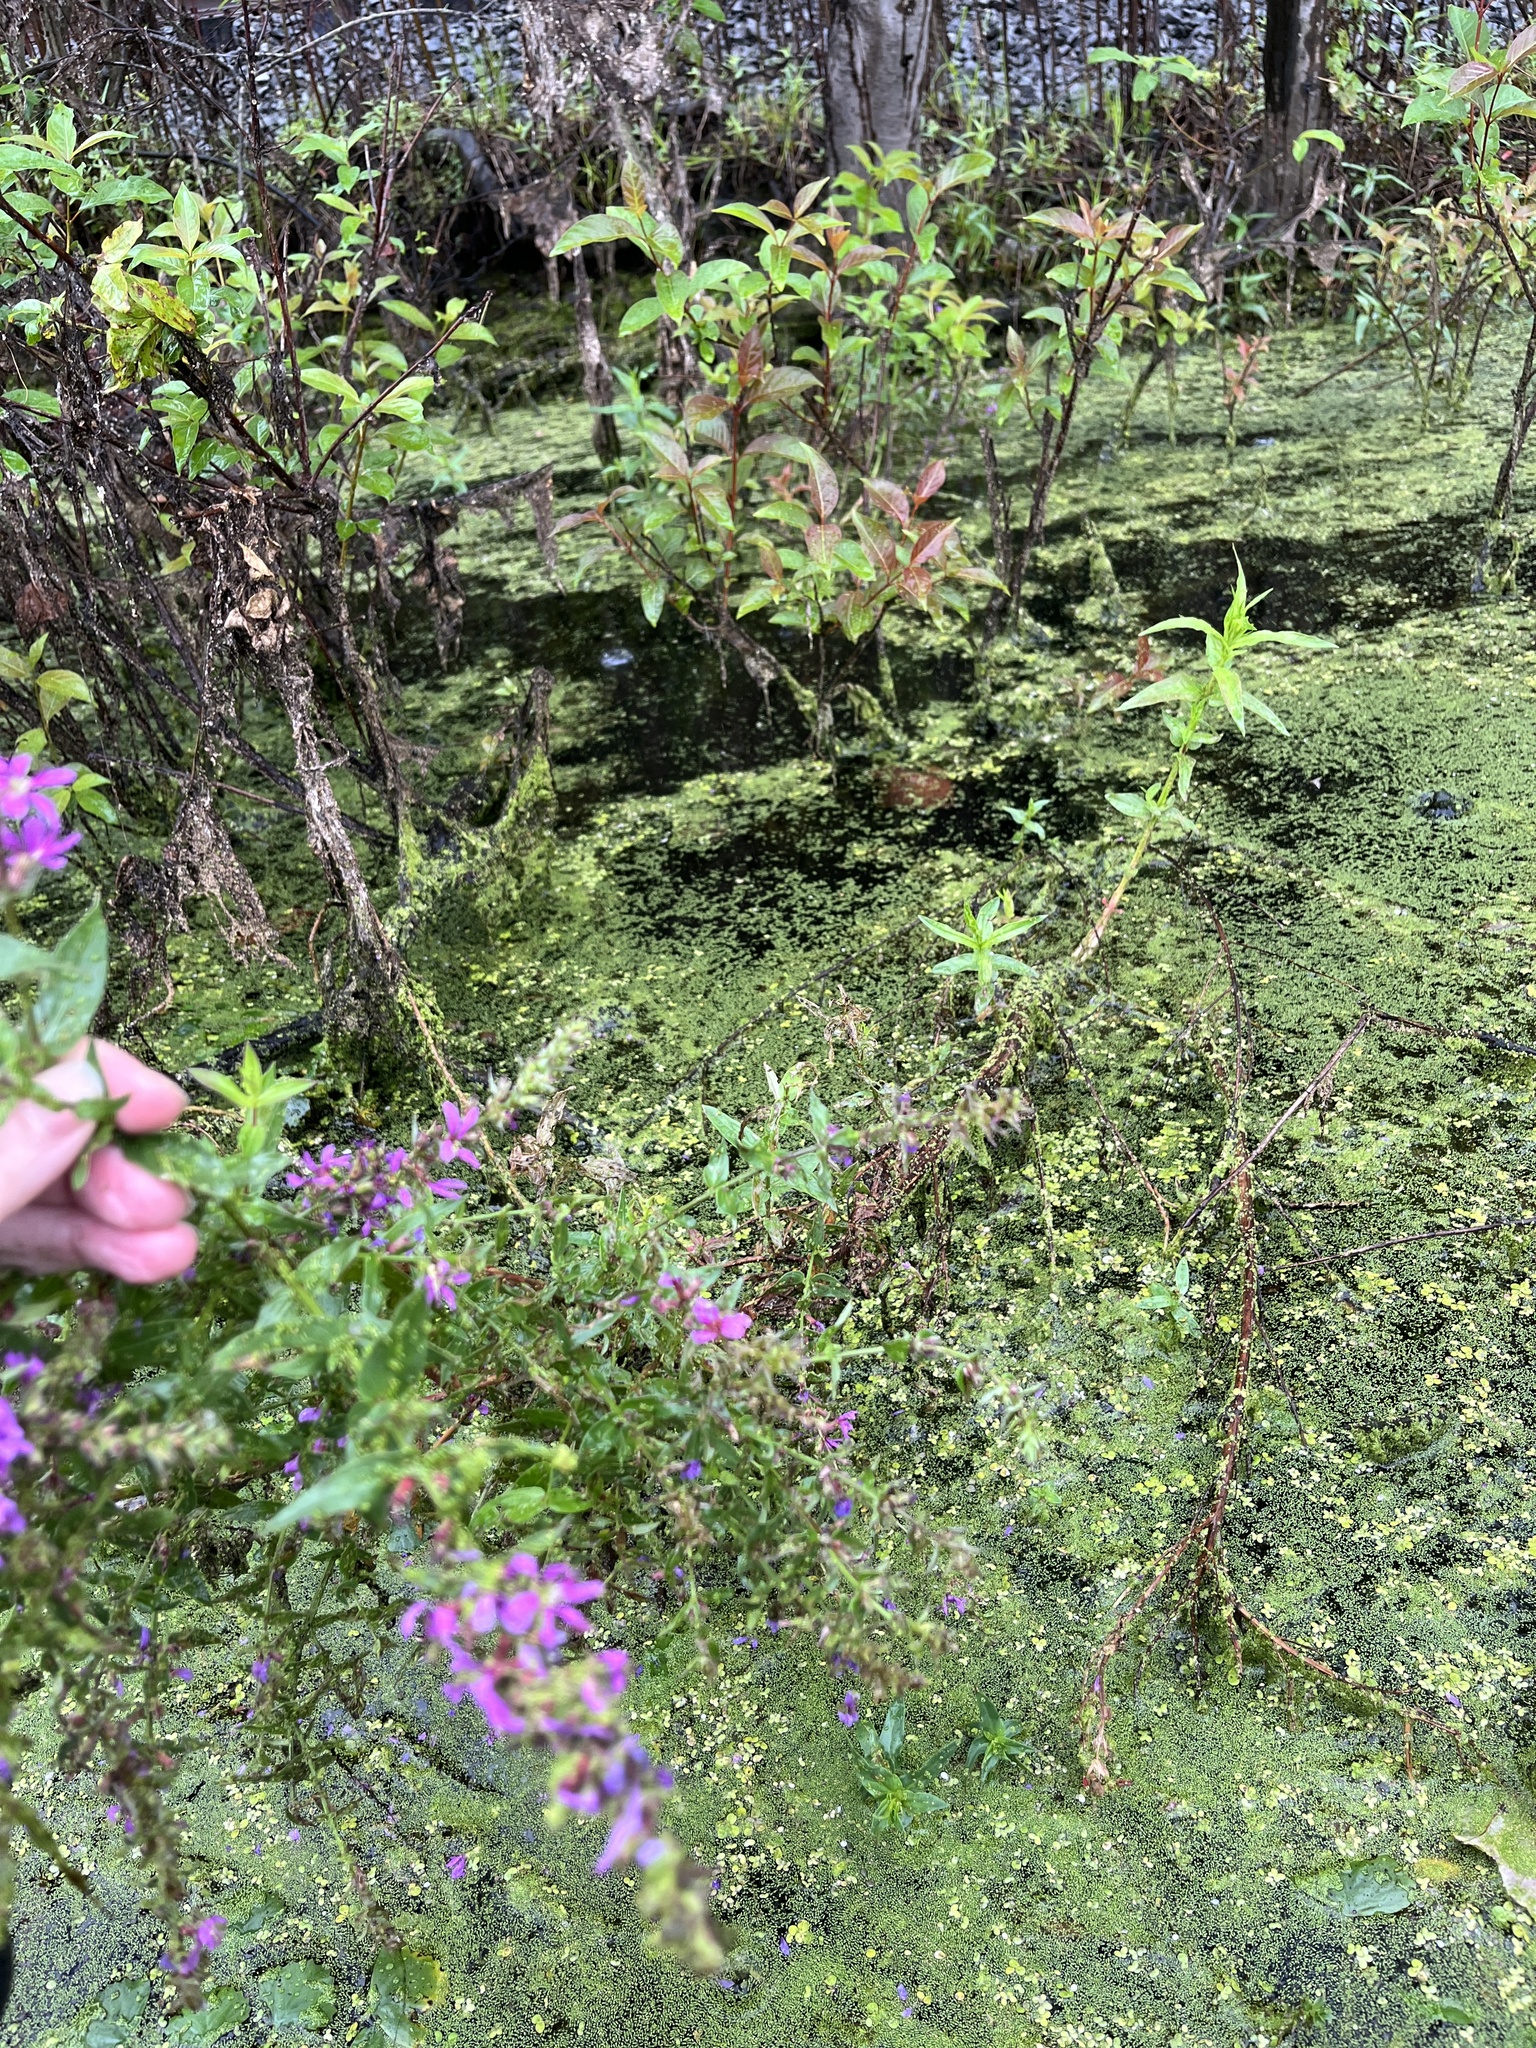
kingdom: Plantae
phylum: Tracheophyta
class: Magnoliopsida
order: Myrtales
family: Lythraceae
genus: Lythrum
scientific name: Lythrum salicaria
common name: Purple loosestrife
